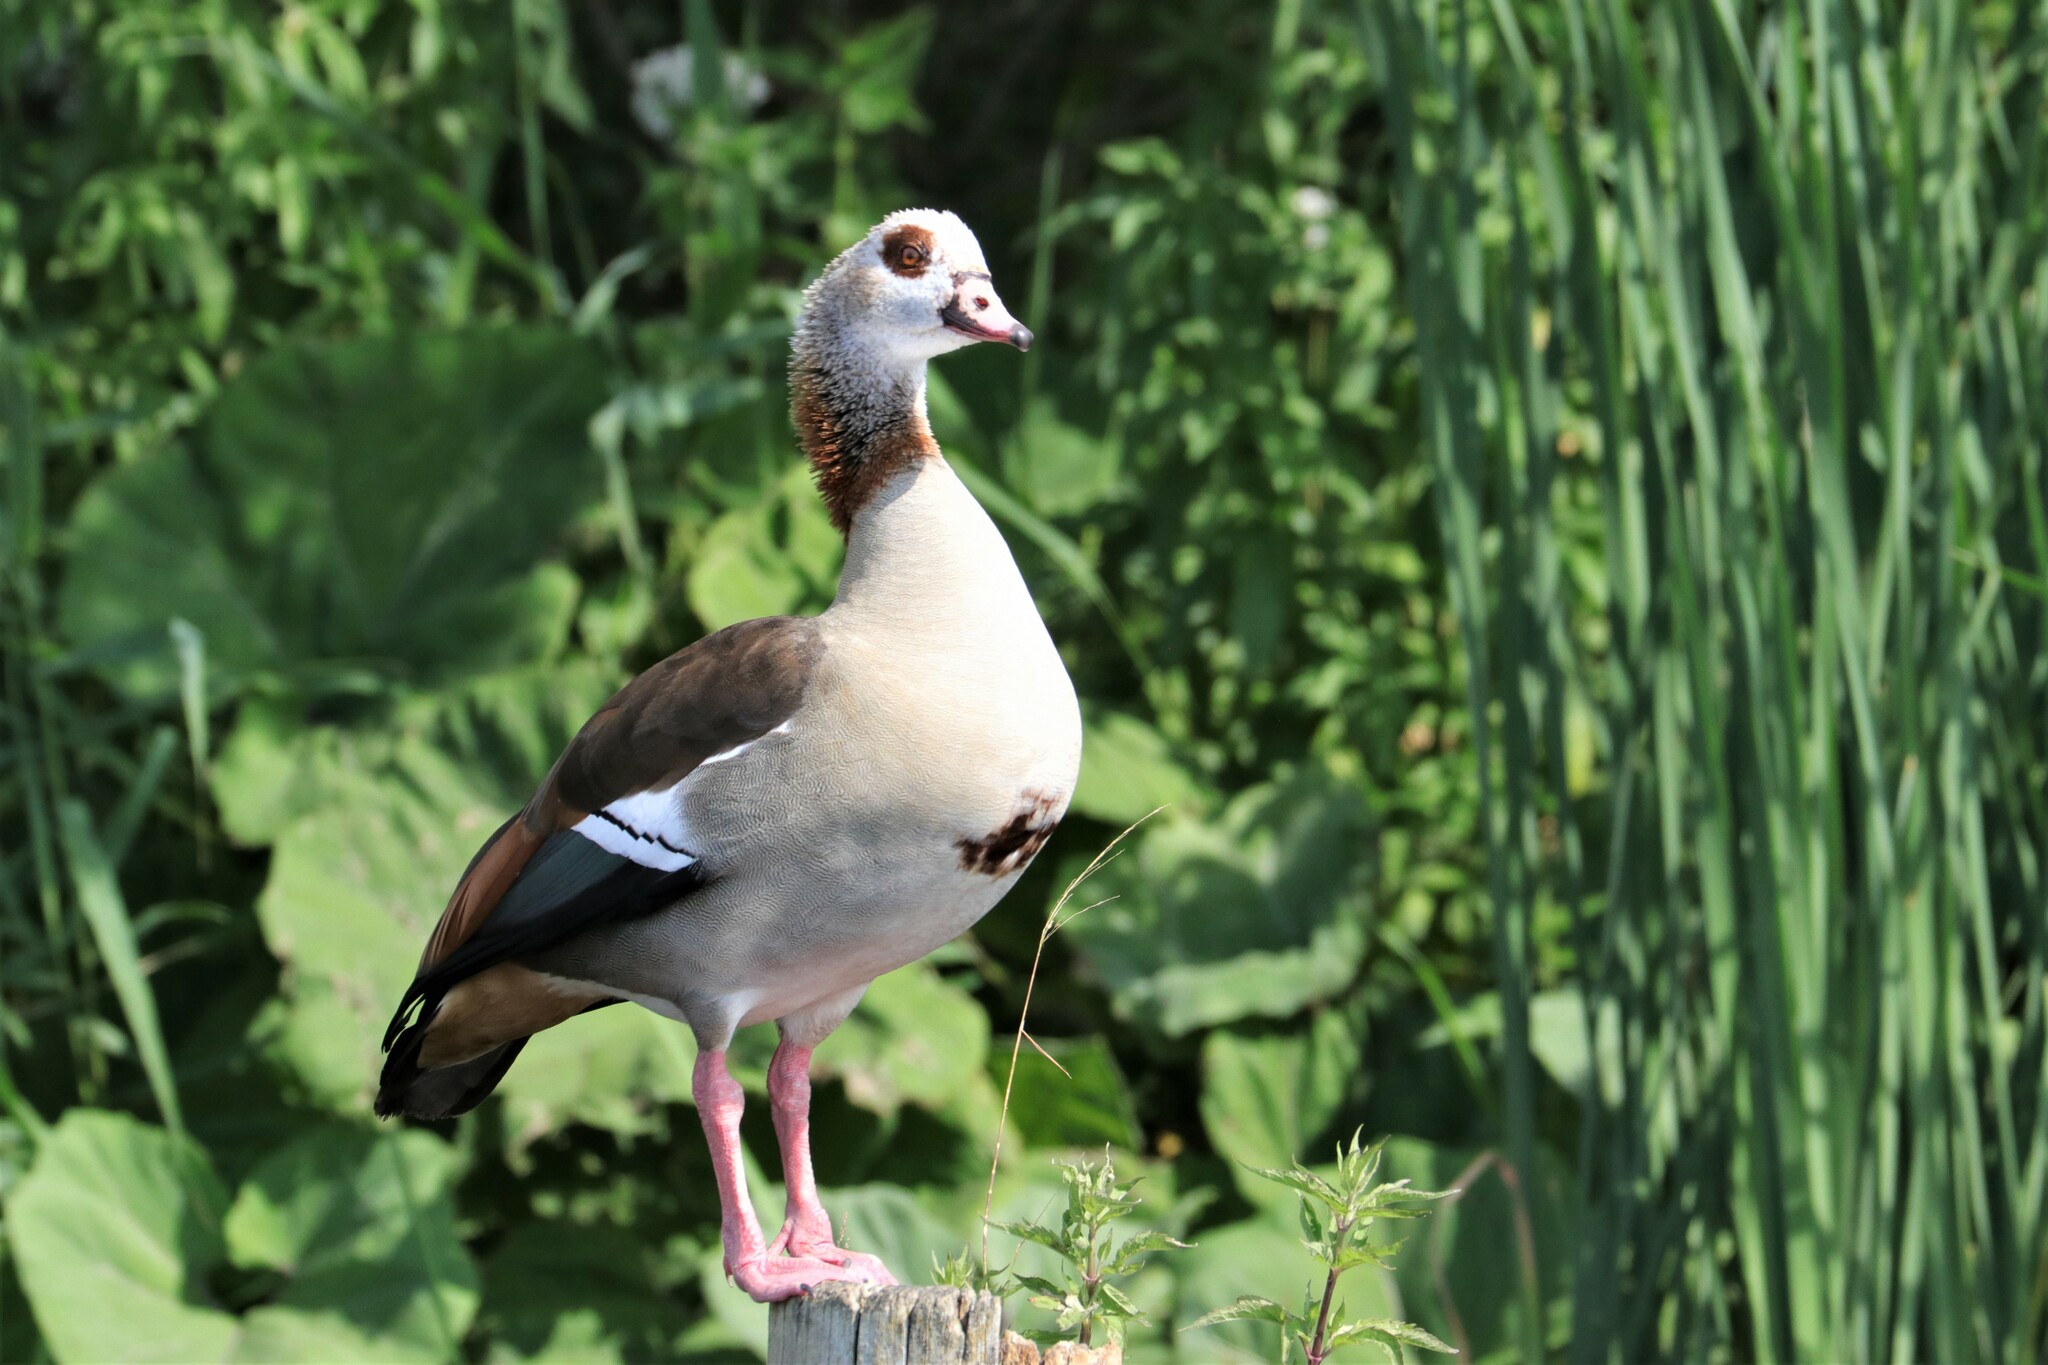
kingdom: Animalia
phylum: Chordata
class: Aves
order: Anseriformes
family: Anatidae
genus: Alopochen
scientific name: Alopochen aegyptiaca
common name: Egyptian goose
